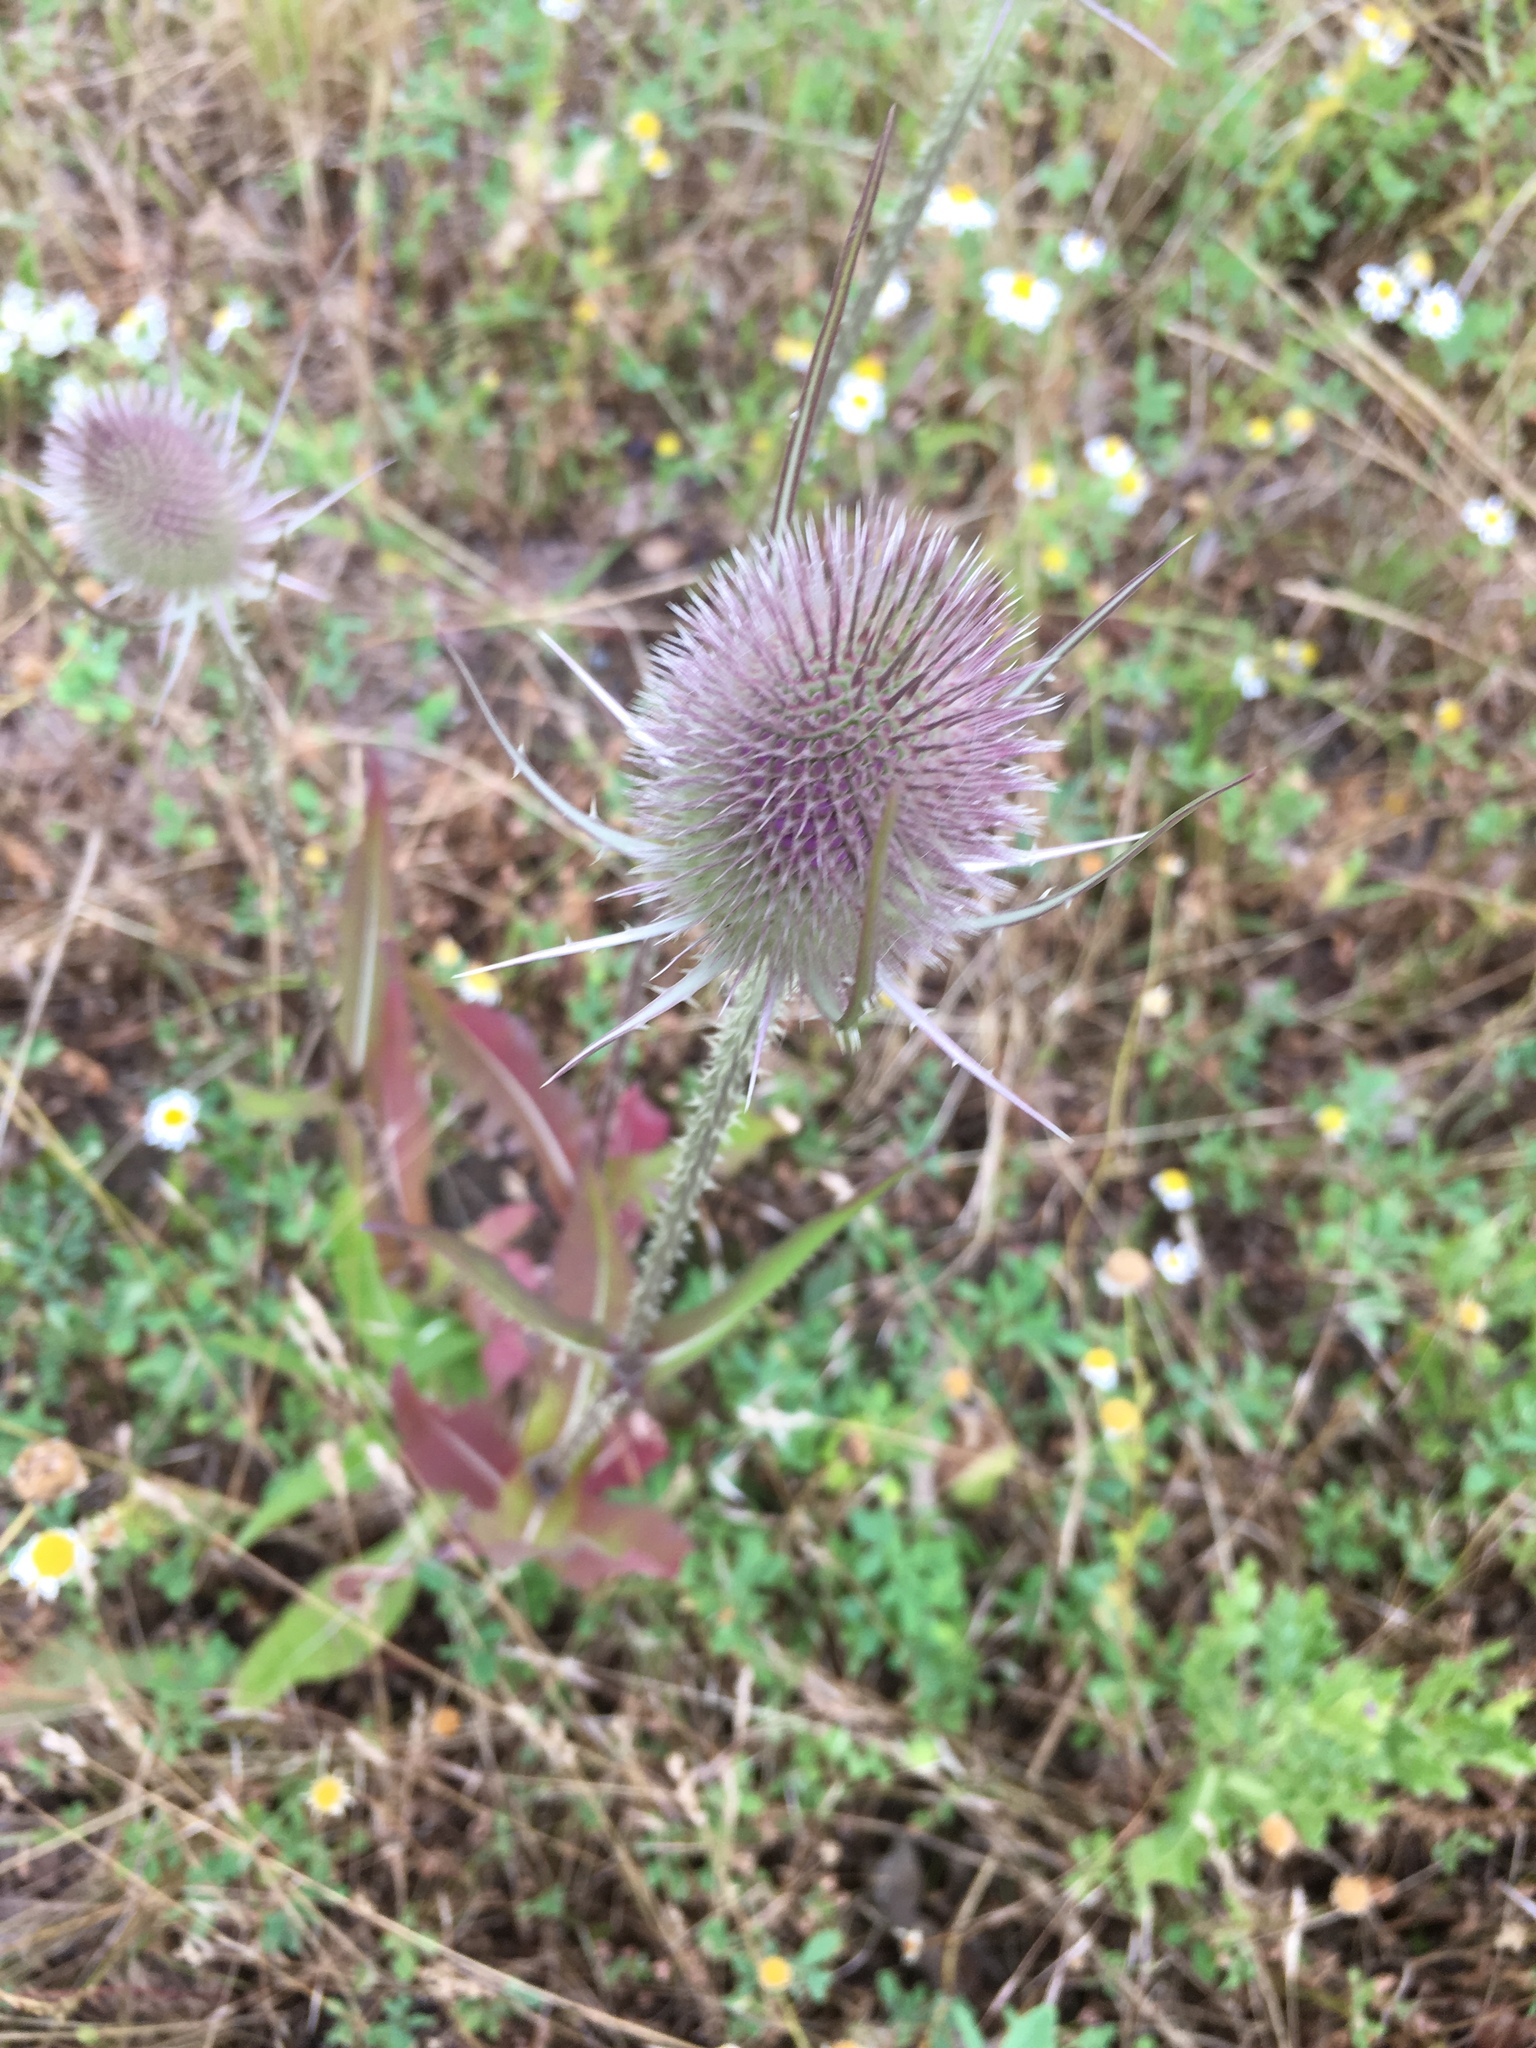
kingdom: Plantae
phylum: Tracheophyta
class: Magnoliopsida
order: Dipsacales
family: Caprifoliaceae
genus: Dipsacus
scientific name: Dipsacus fullonum
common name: Teasel
